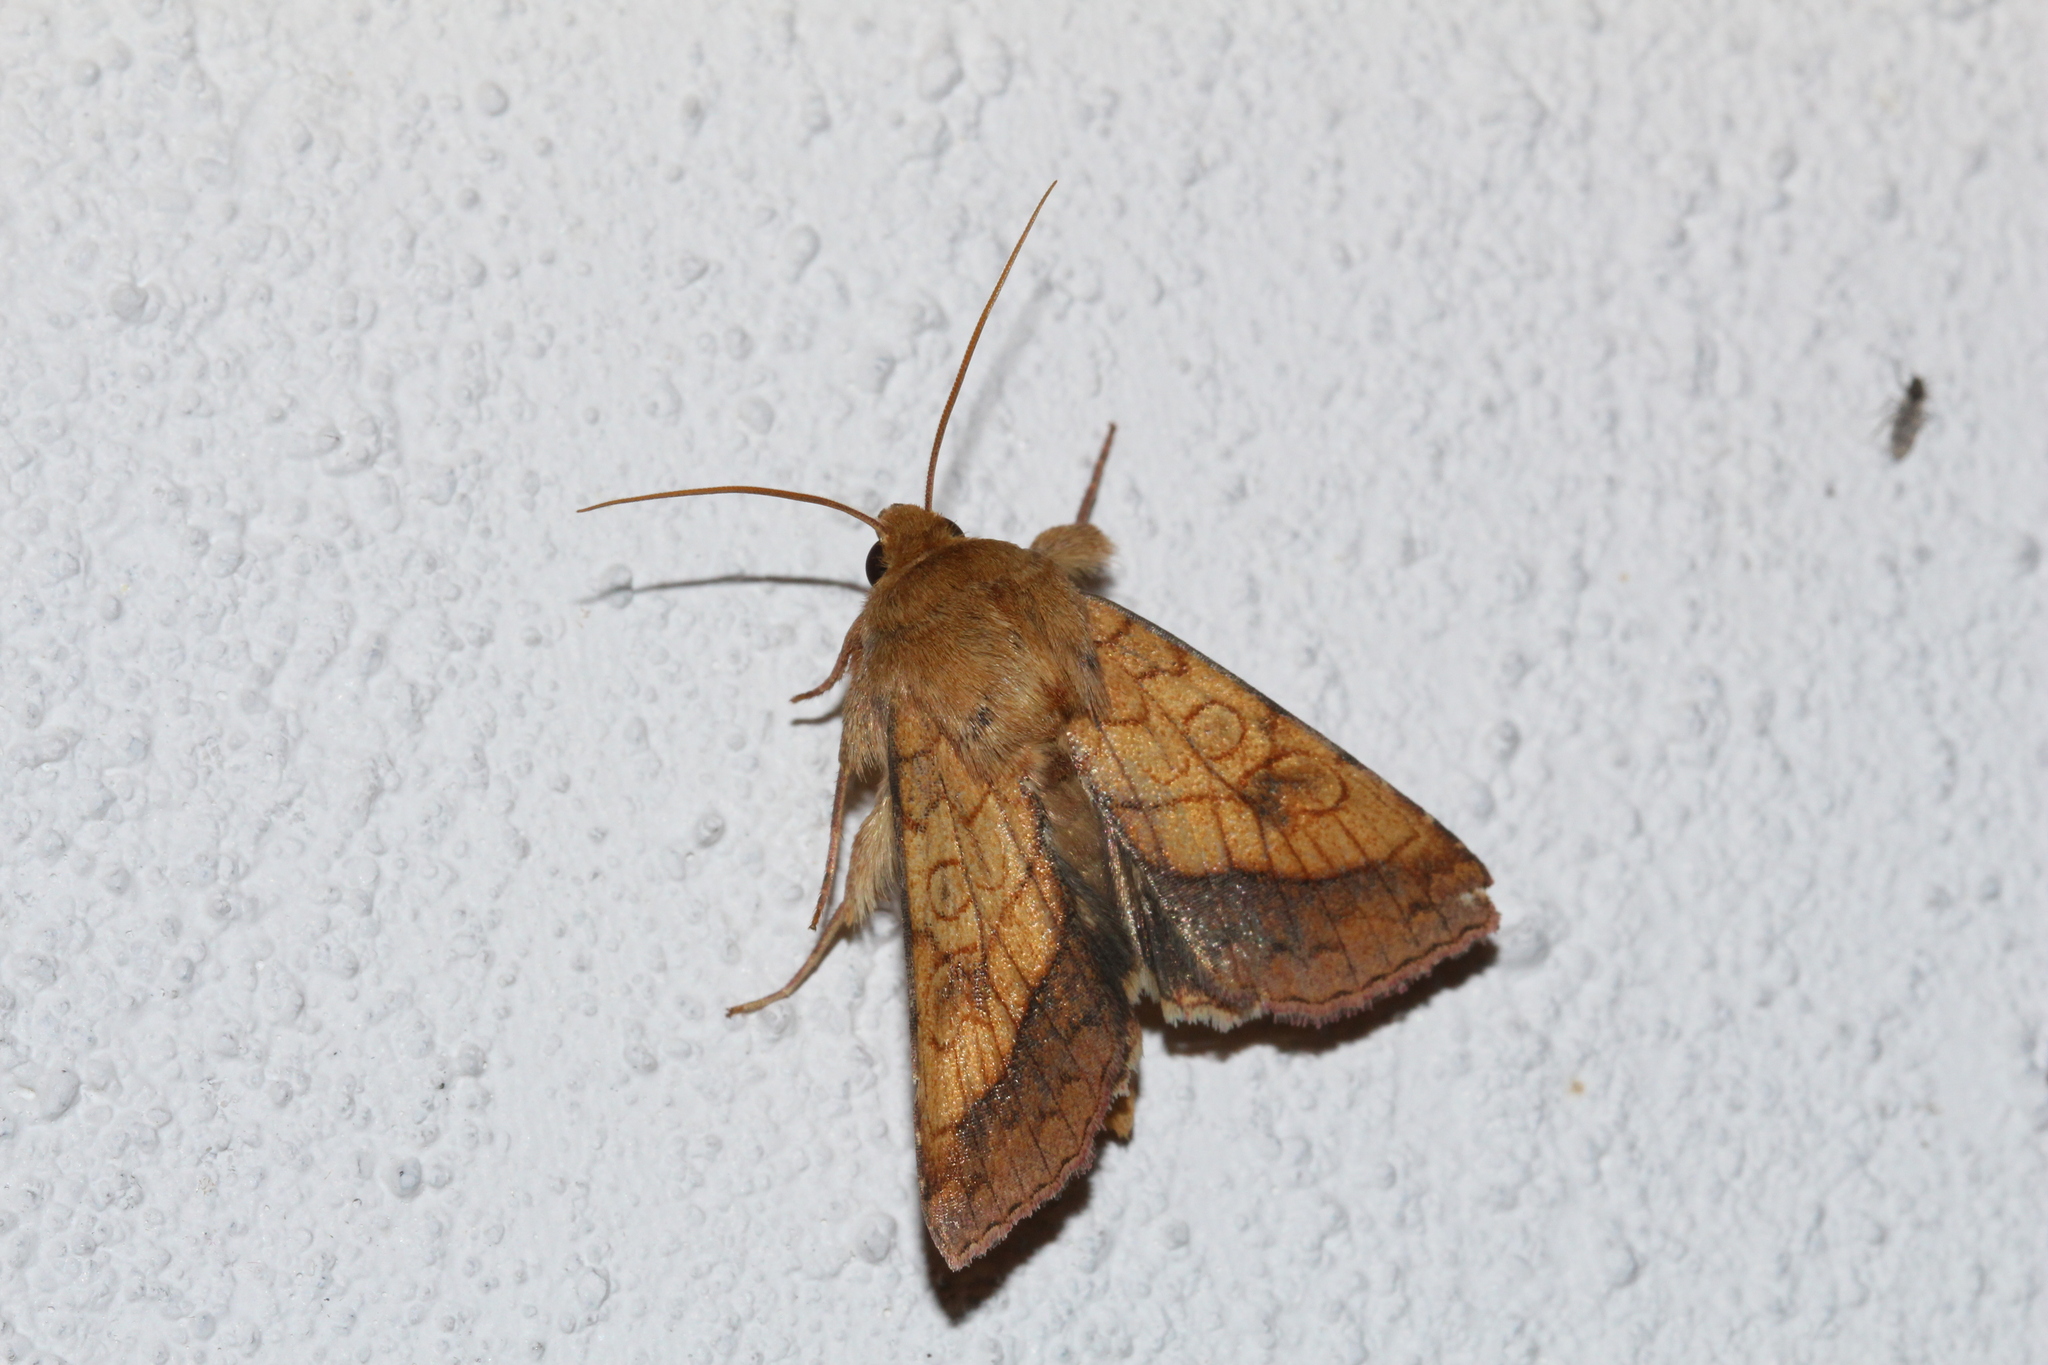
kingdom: Animalia
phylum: Arthropoda
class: Insecta
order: Lepidoptera
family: Noctuidae
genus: Pyrrhia
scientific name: Pyrrhia umbra
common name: Bordered sallow
